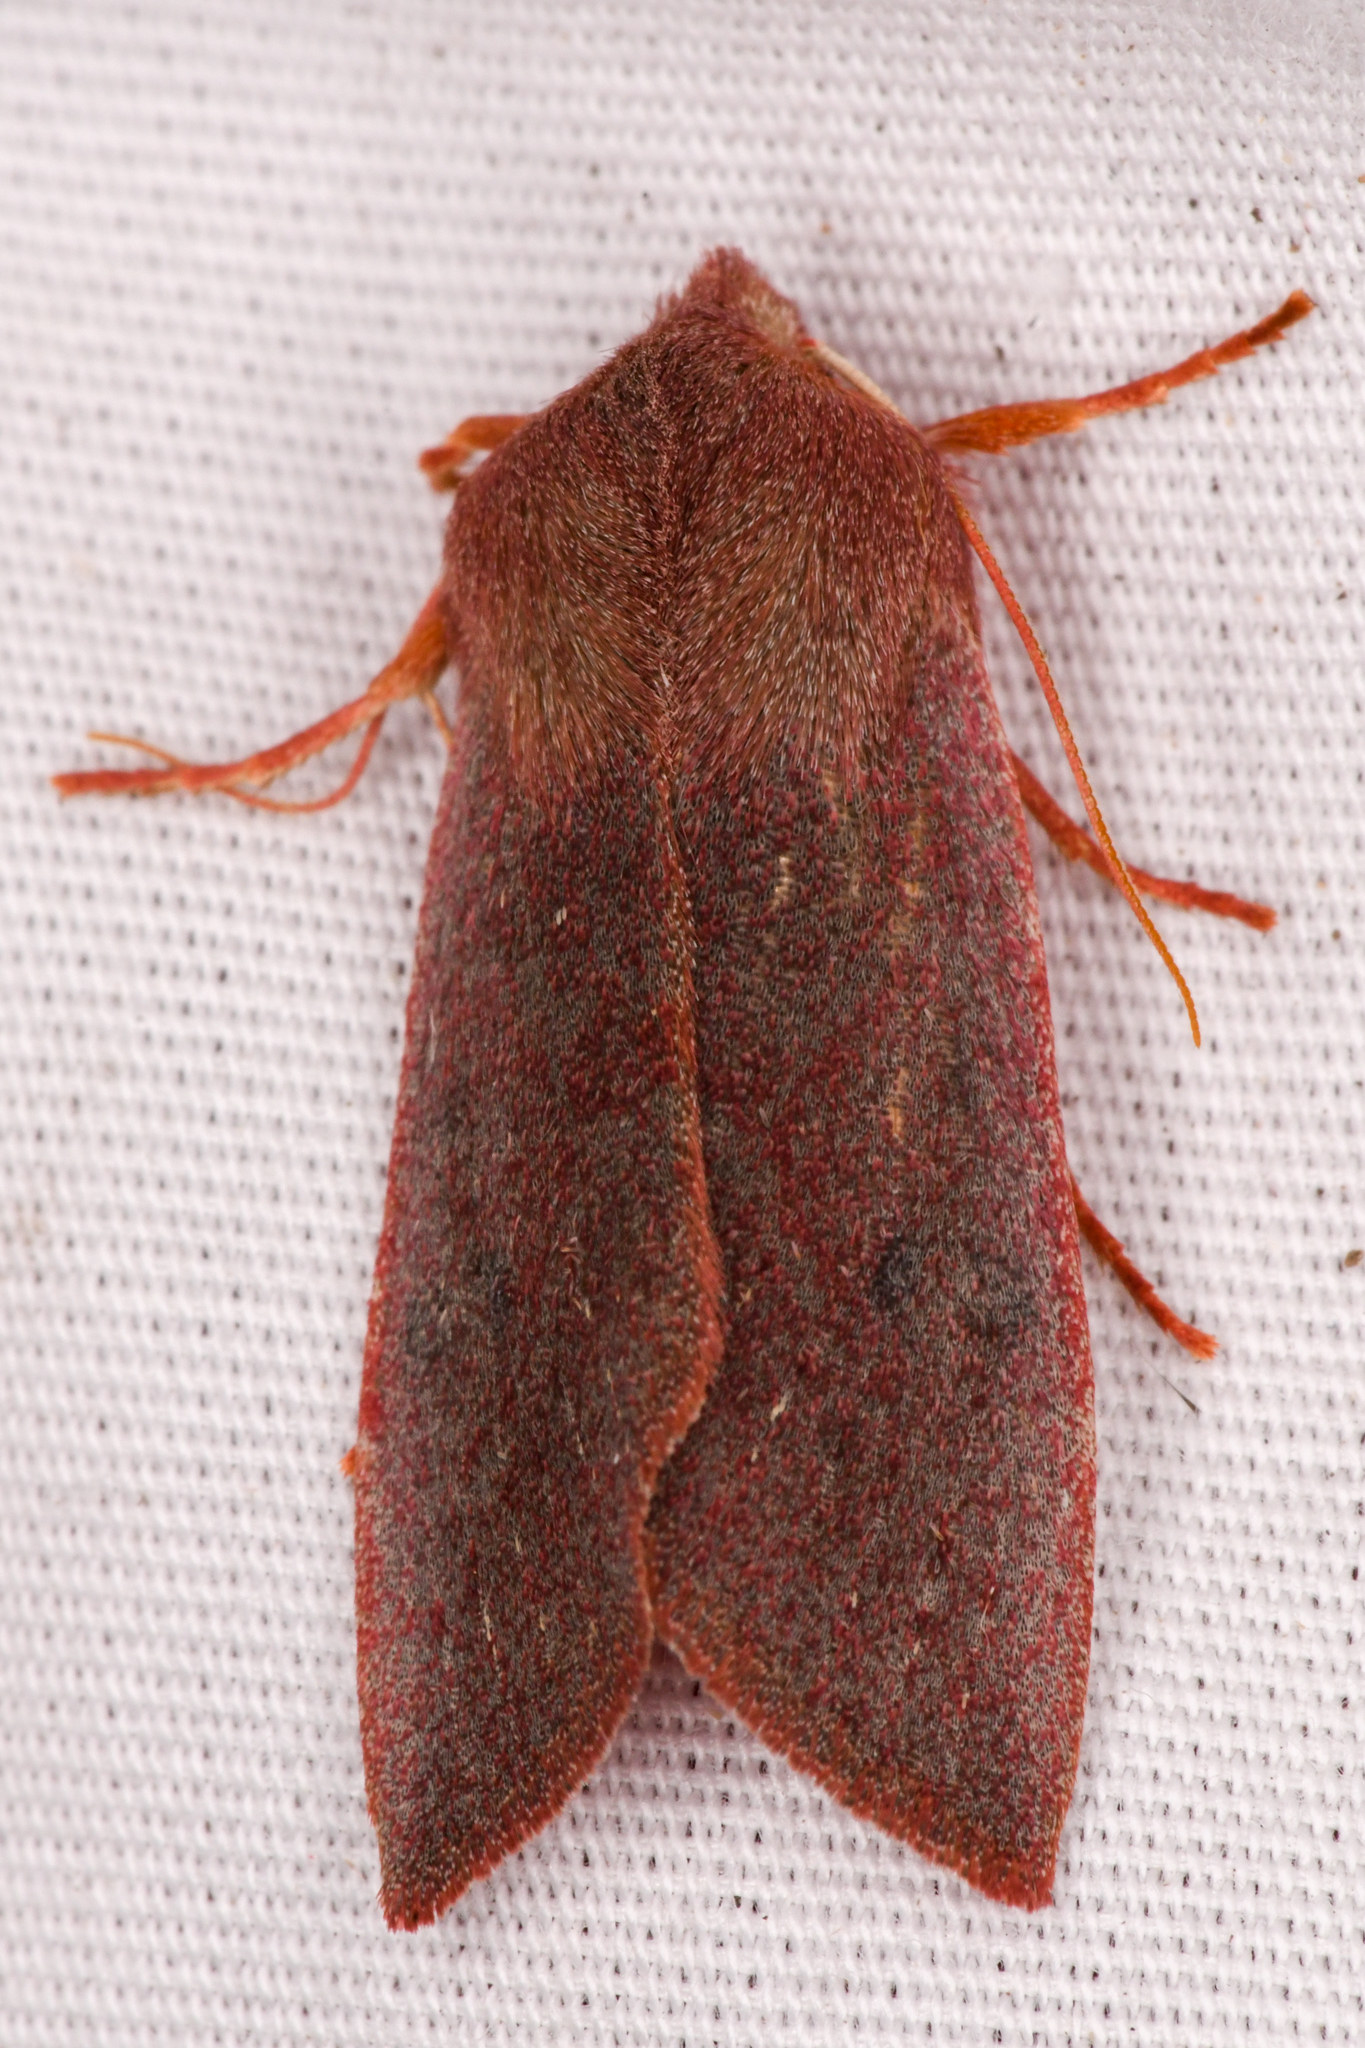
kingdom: Animalia
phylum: Arthropoda
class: Insecta
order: Lepidoptera
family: Noctuidae
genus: Orthosia
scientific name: Orthosia mys
